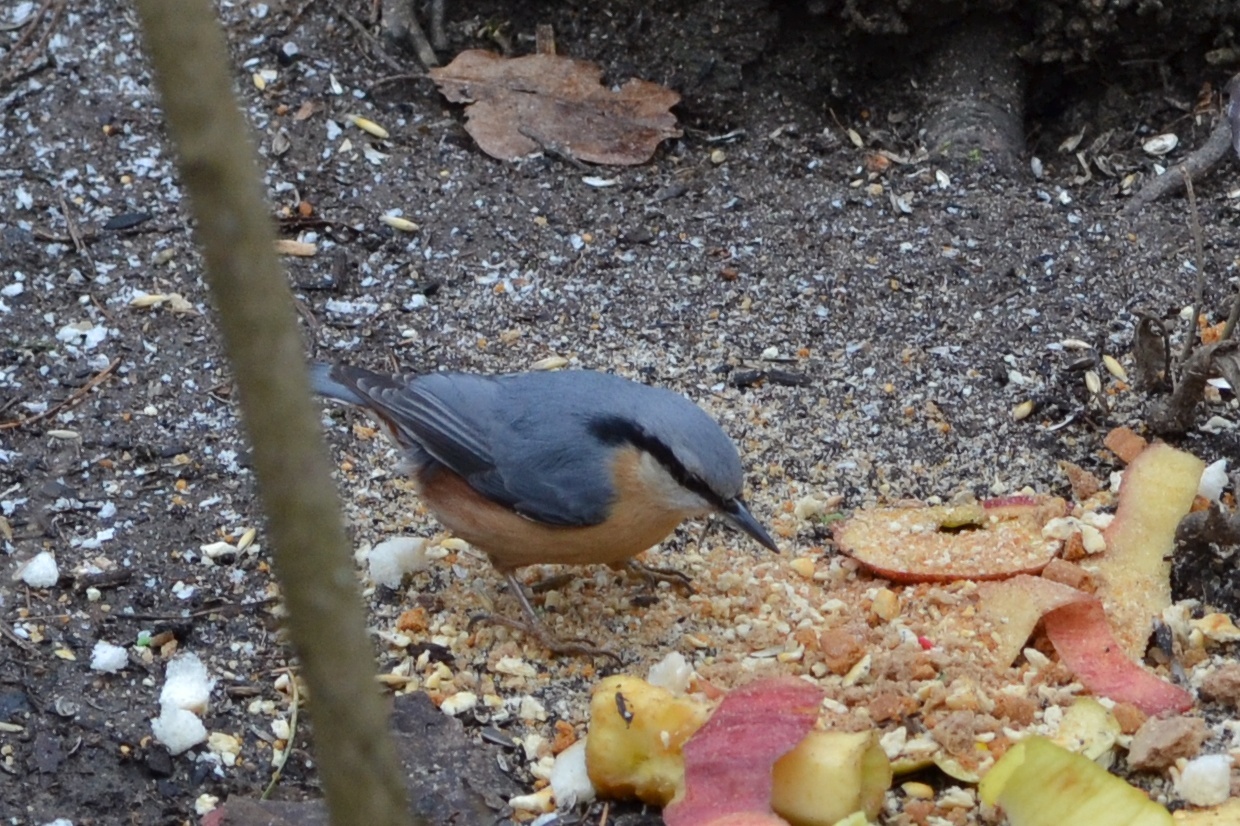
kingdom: Animalia
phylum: Chordata
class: Aves
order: Passeriformes
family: Sittidae
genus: Sitta
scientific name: Sitta europaea
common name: Eurasian nuthatch
